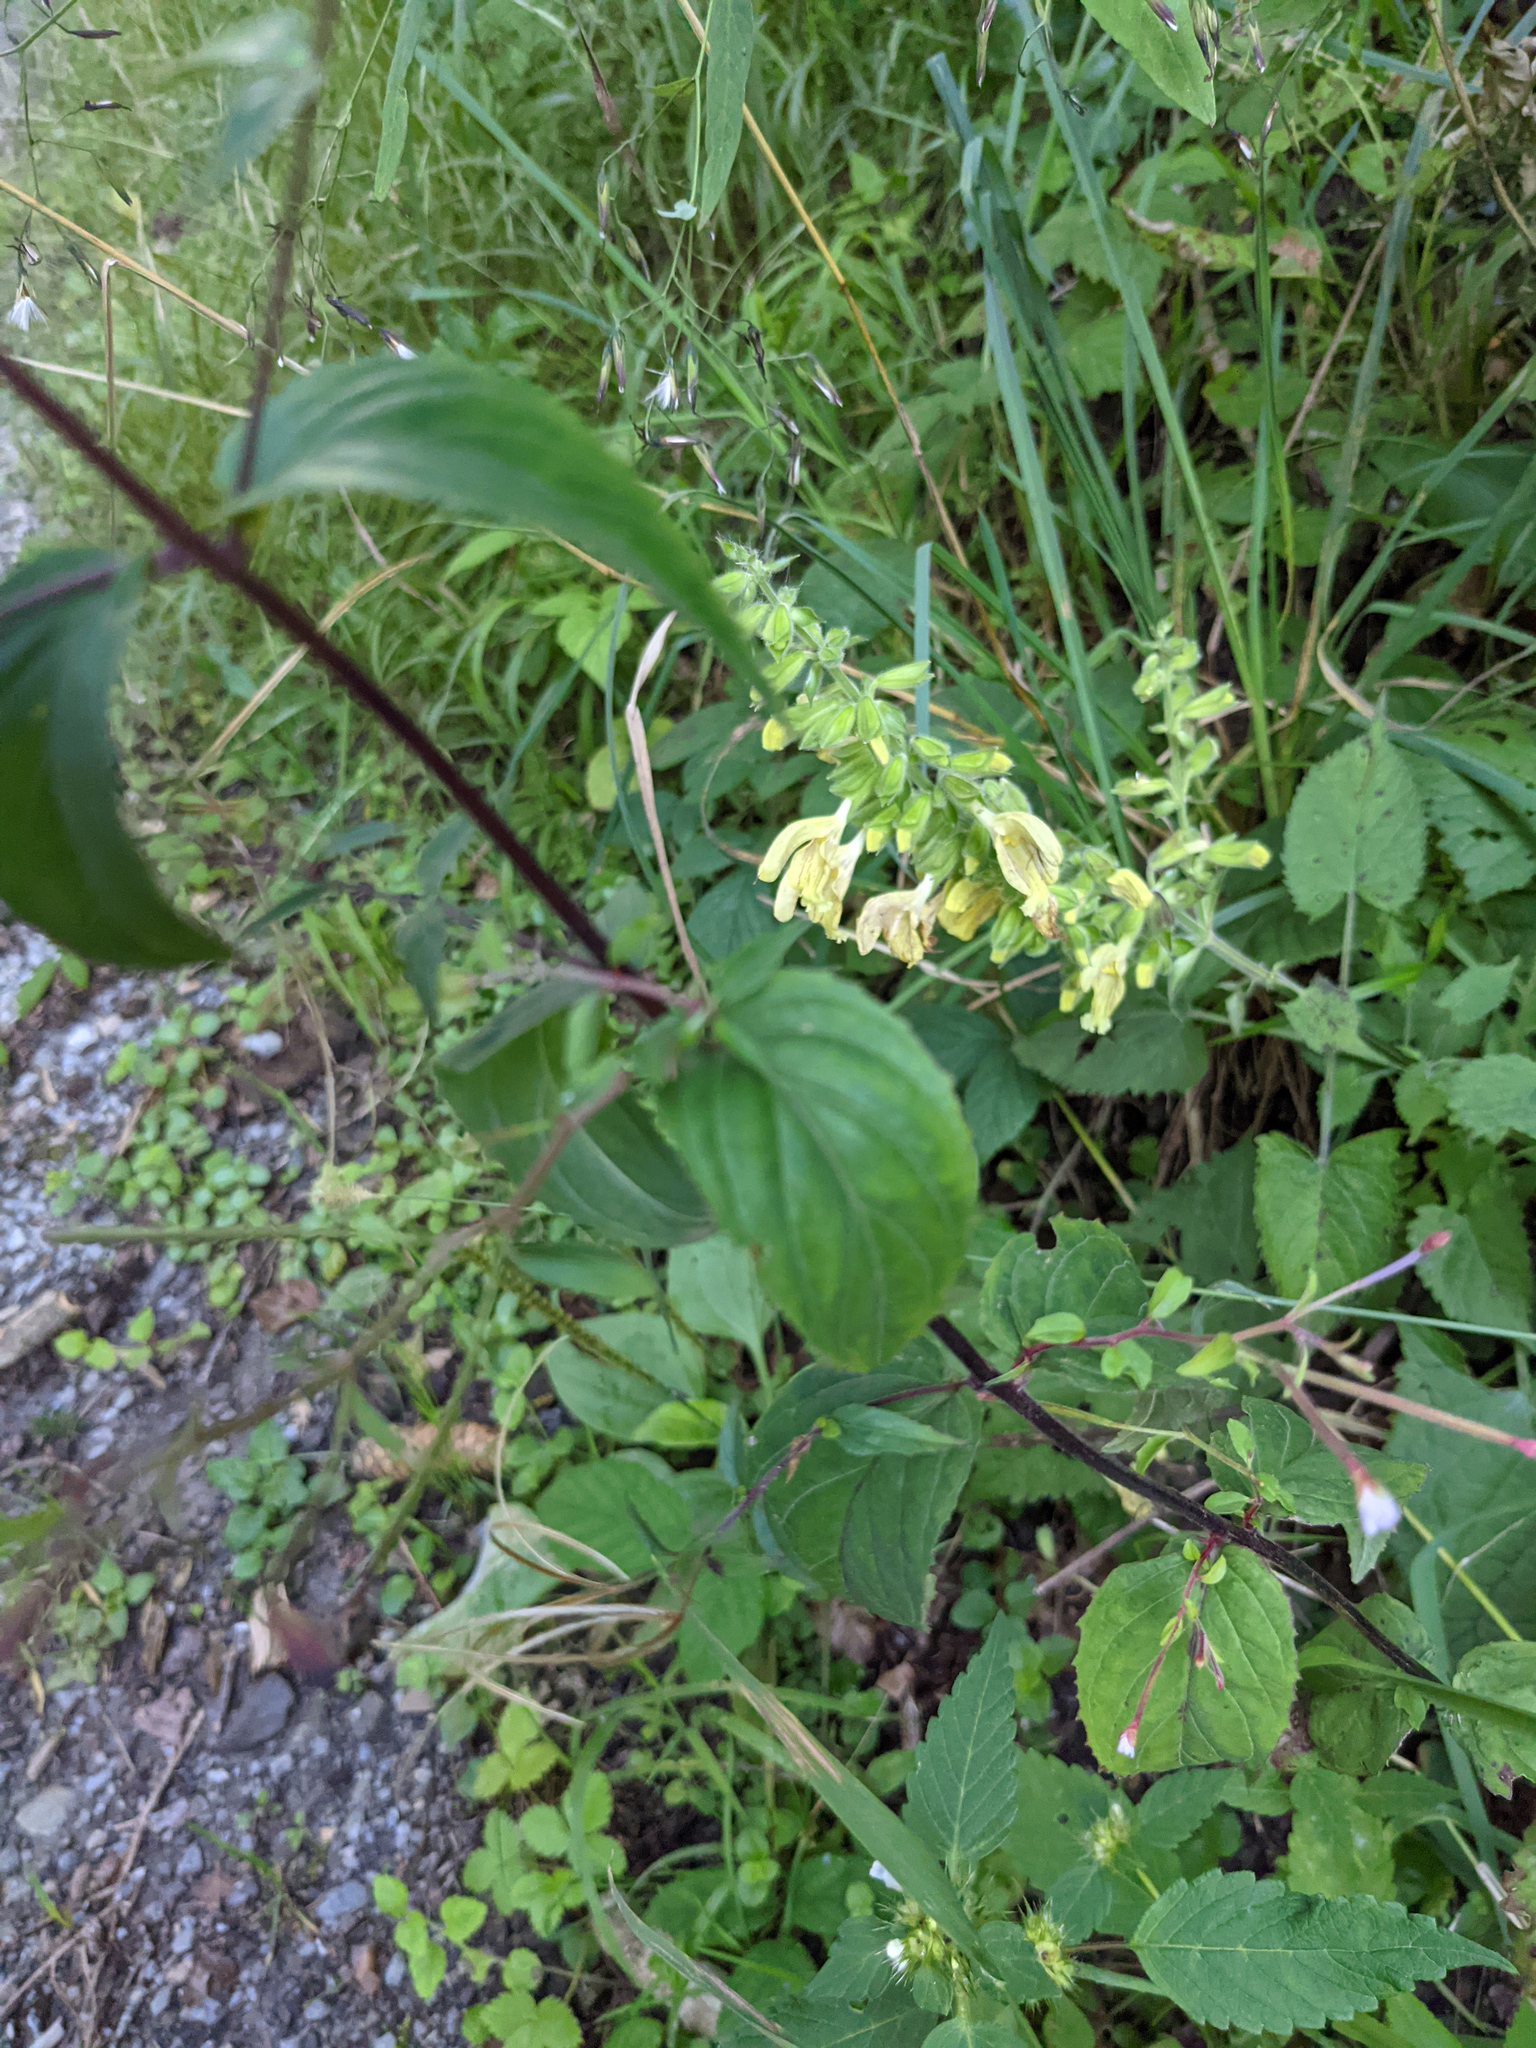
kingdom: Plantae
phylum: Tracheophyta
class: Magnoliopsida
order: Lamiales
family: Lamiaceae
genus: Salvia
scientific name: Salvia glutinosa
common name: Sticky clary
